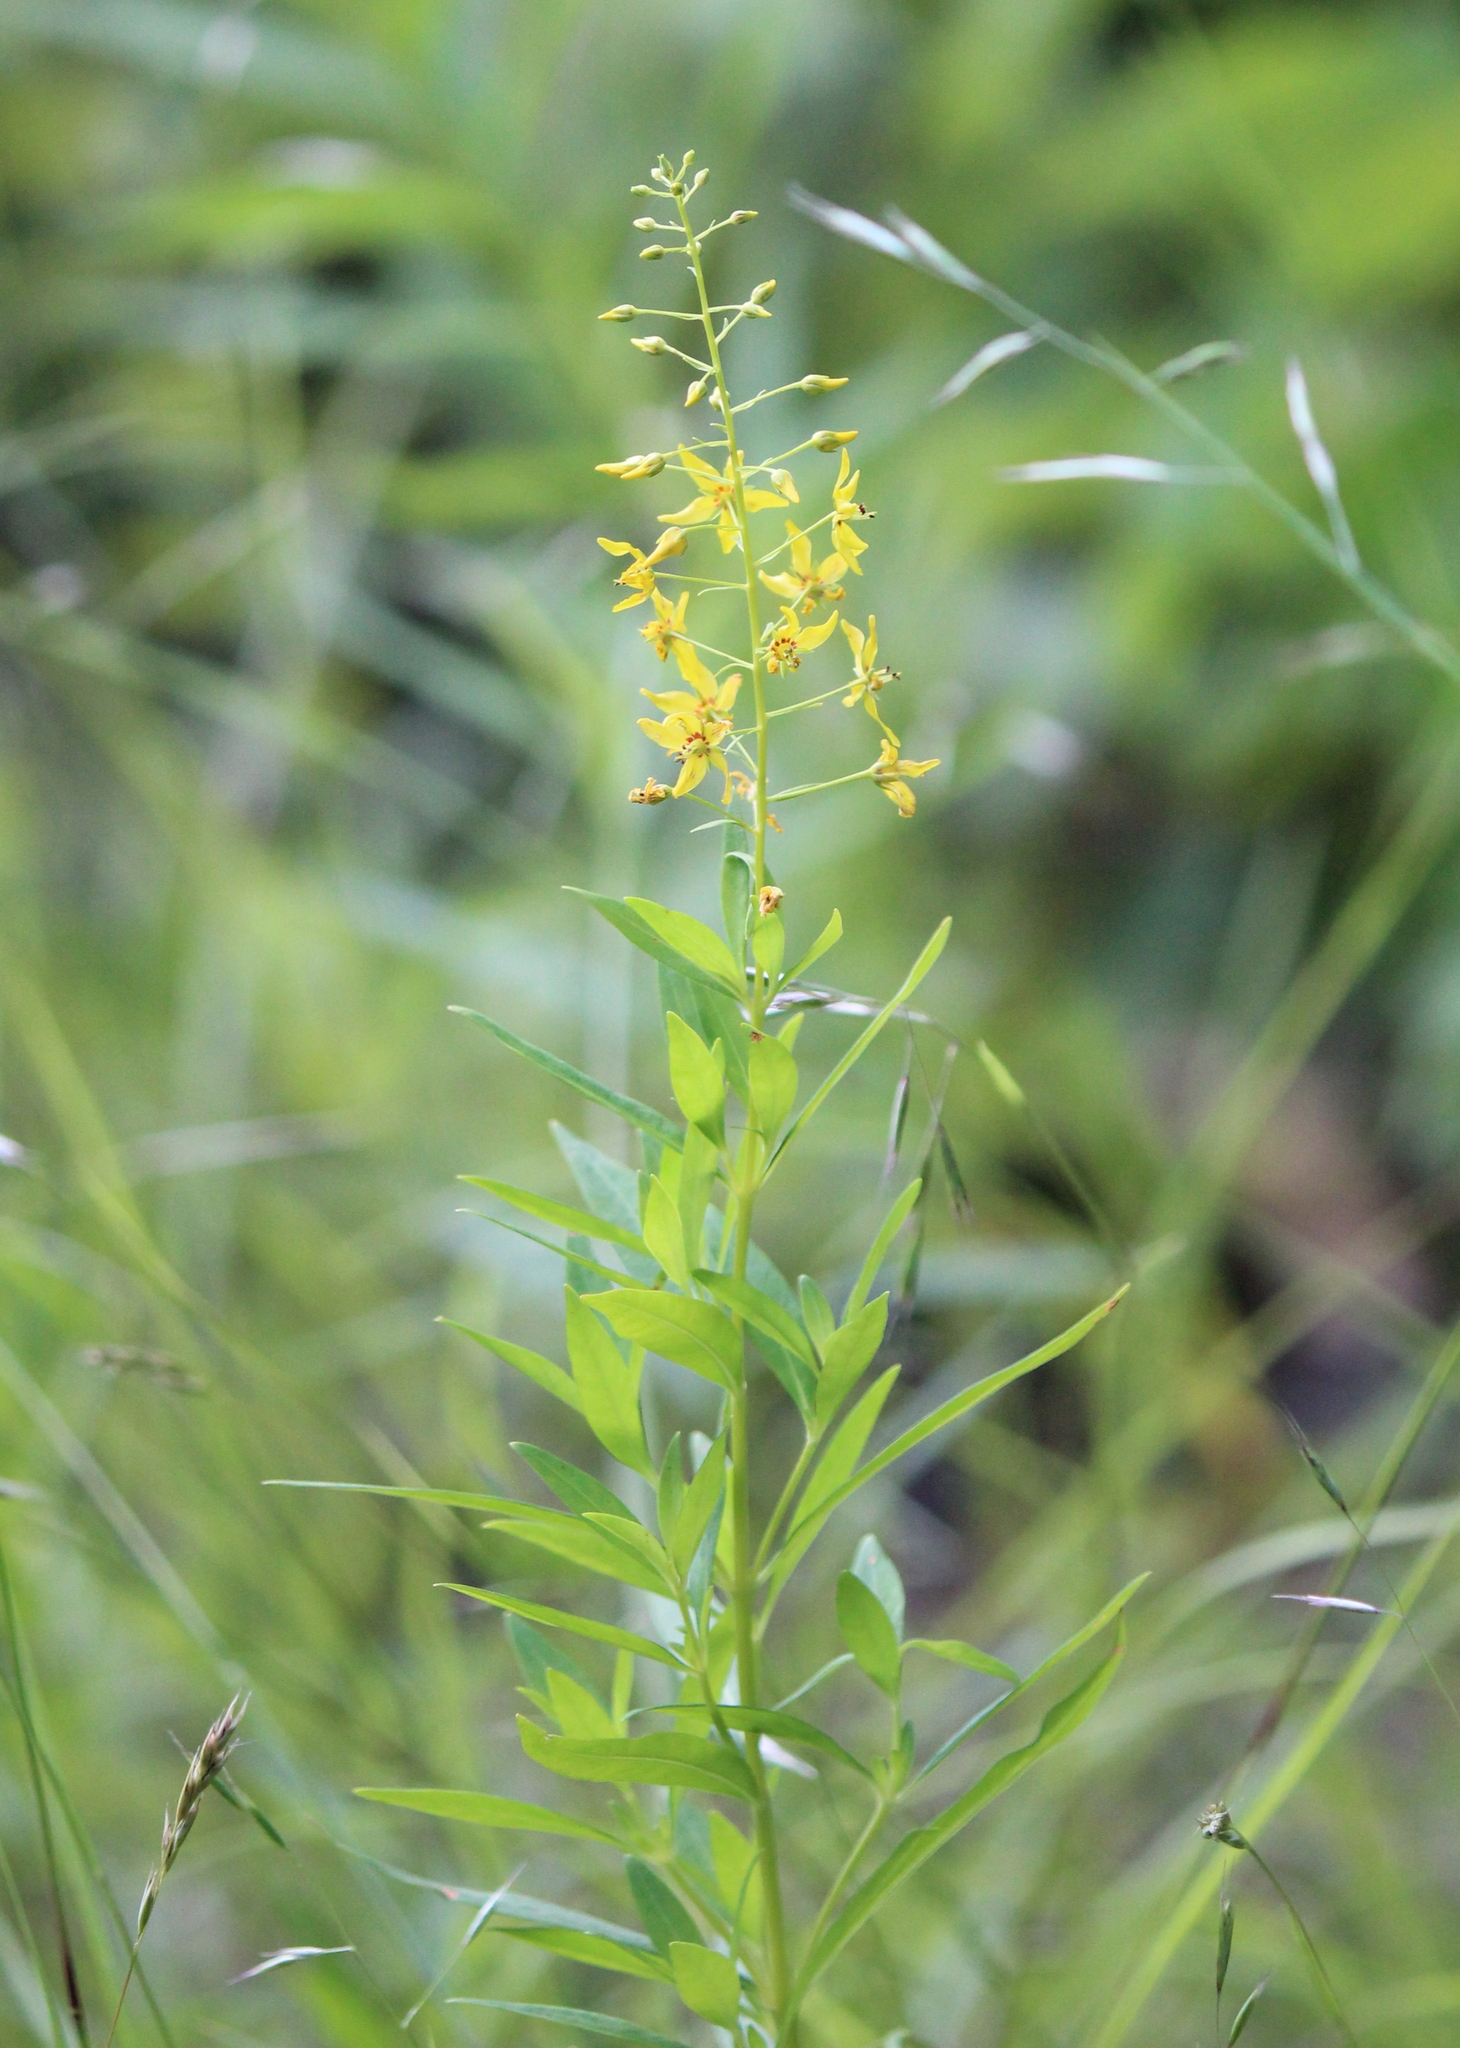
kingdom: Plantae
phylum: Tracheophyta
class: Magnoliopsida
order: Ericales
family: Primulaceae
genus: Lysimachia
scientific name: Lysimachia terrestris
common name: Lake loosestrife
